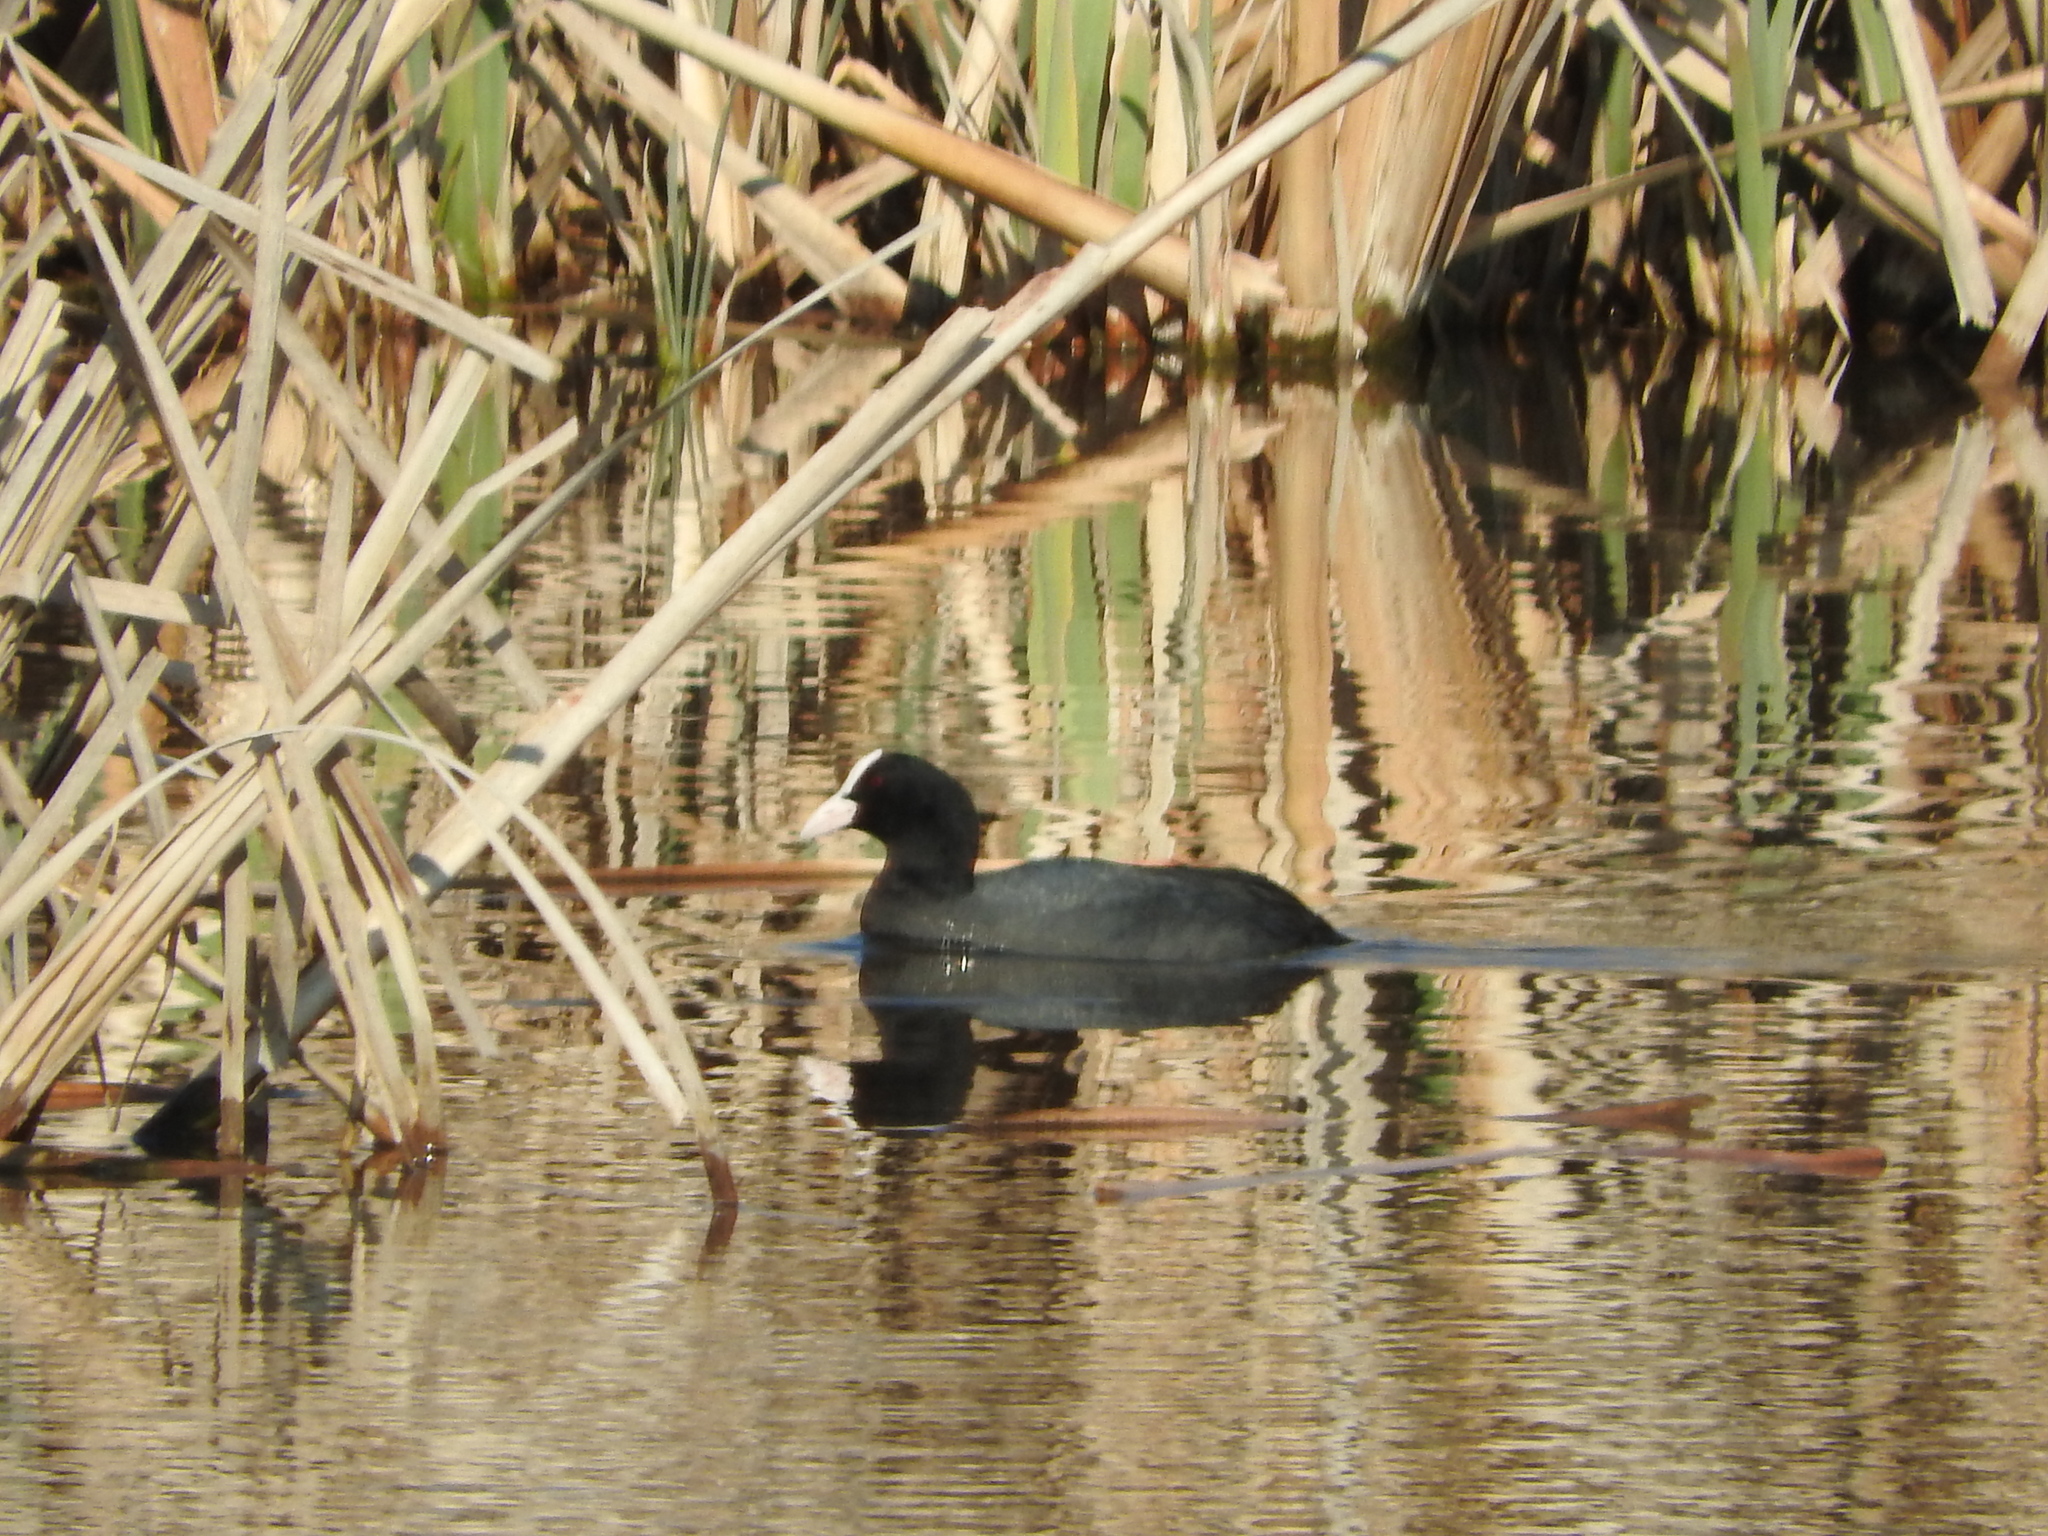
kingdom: Animalia
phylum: Chordata
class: Aves
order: Gruiformes
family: Rallidae
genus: Fulica
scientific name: Fulica atra
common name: Eurasian coot
